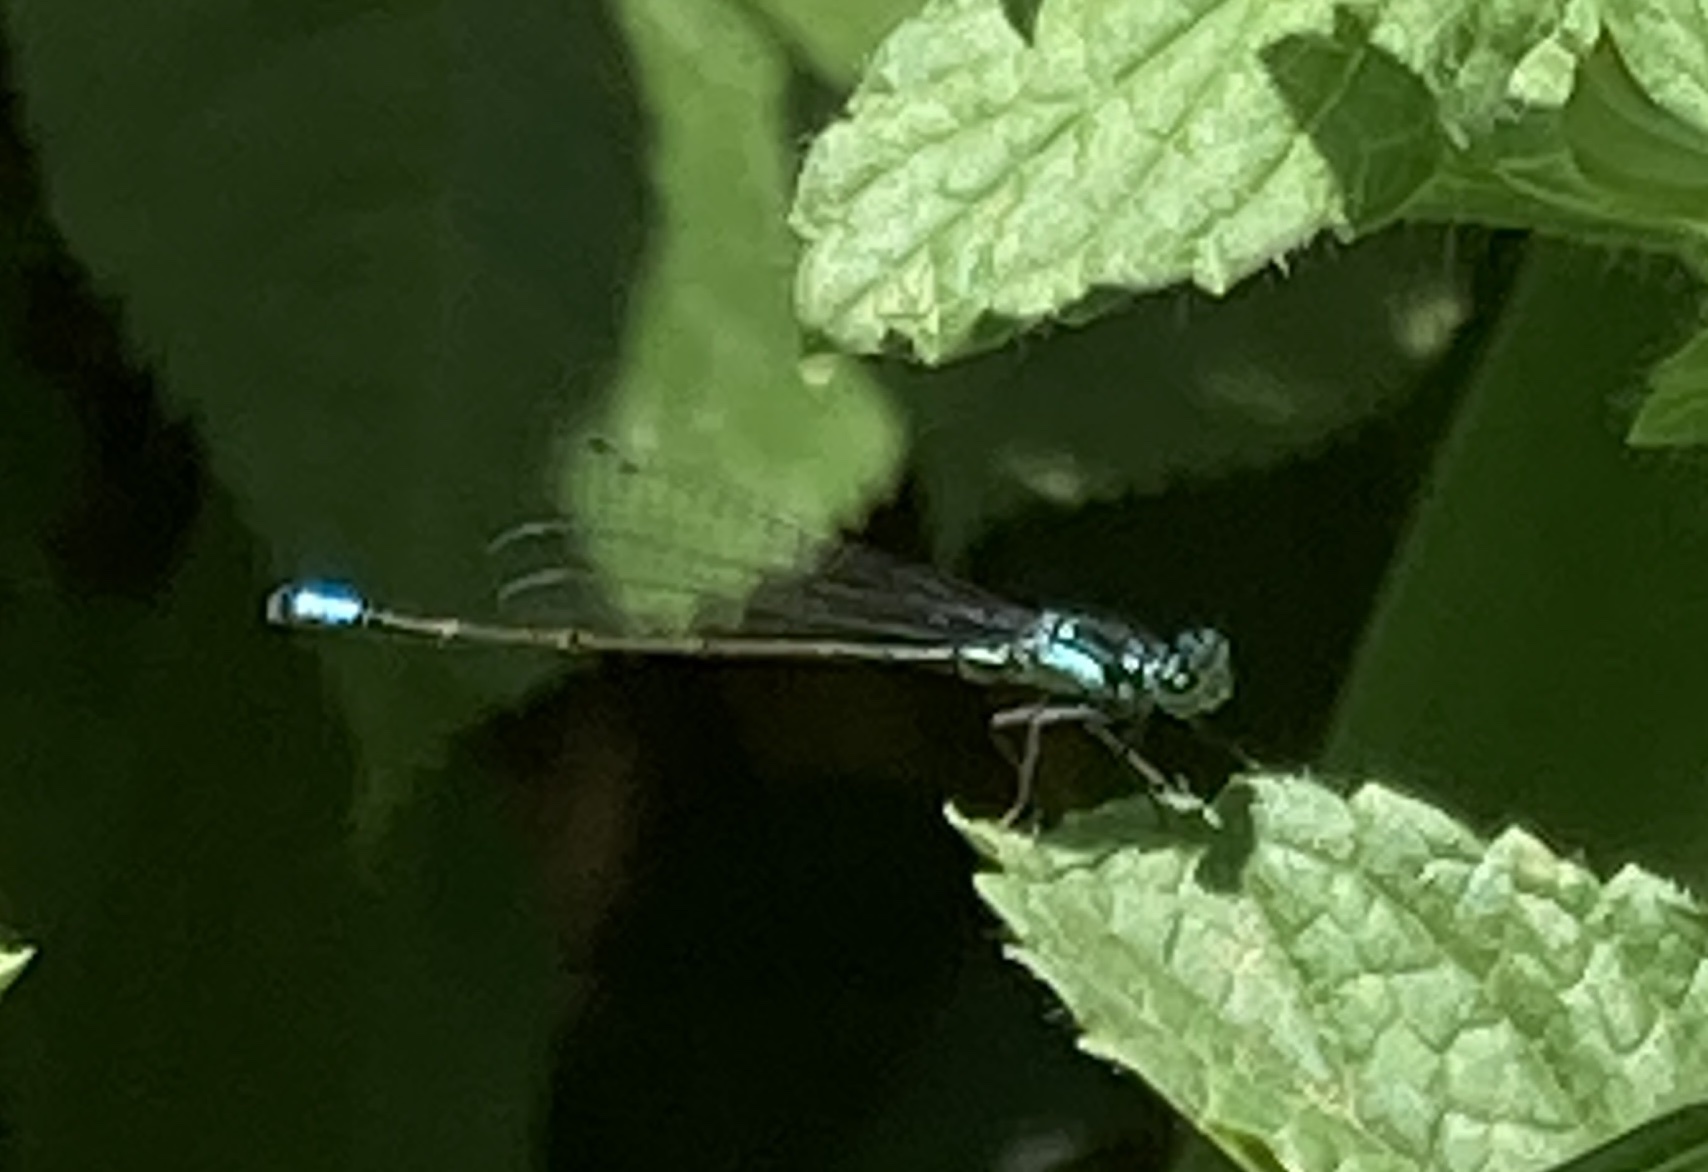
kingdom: Animalia
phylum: Arthropoda
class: Insecta
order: Odonata
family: Coenagrionidae
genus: Ischnura
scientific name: Ischnura cervula
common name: Pacific forktail
